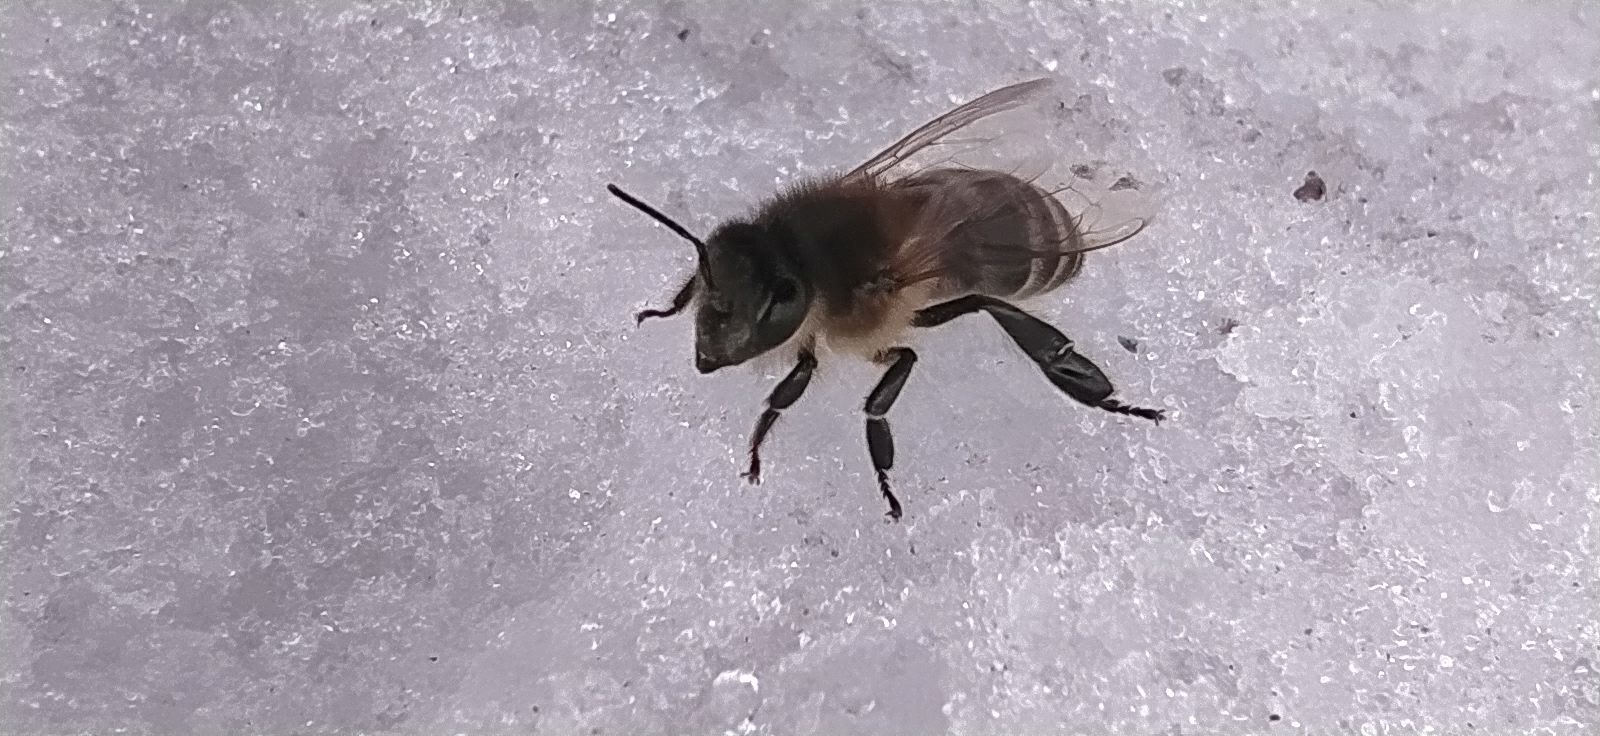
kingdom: Animalia
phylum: Arthropoda
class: Insecta
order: Hymenoptera
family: Apidae
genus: Apis
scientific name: Apis mellifera
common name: Honey bee
